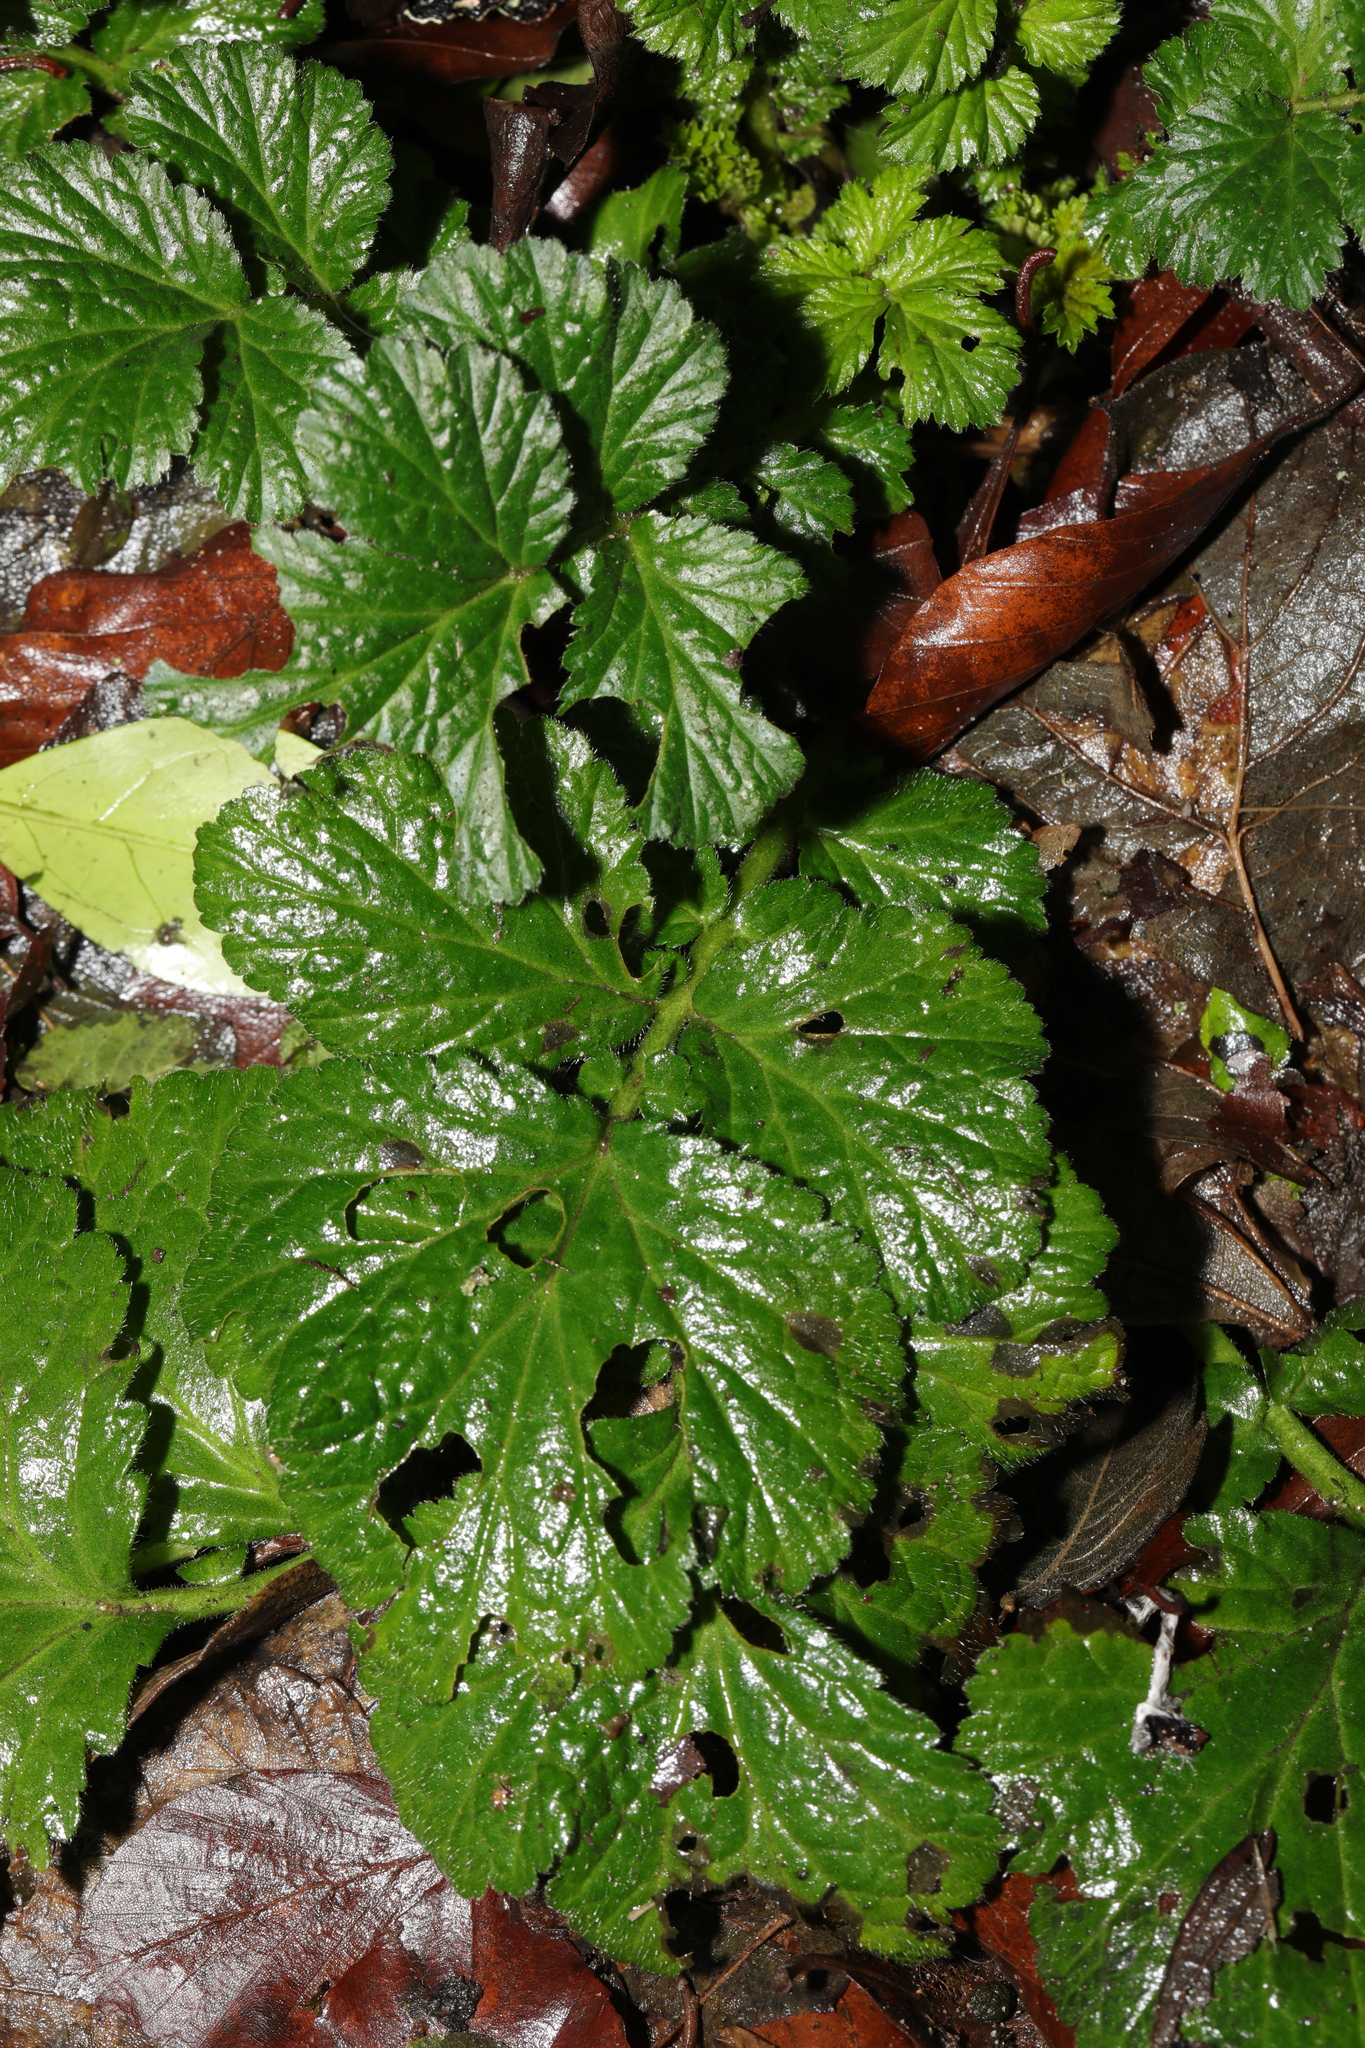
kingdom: Plantae
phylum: Tracheophyta
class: Magnoliopsida
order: Rosales
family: Rosaceae
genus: Geum
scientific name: Geum urbanum
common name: Wood avens
